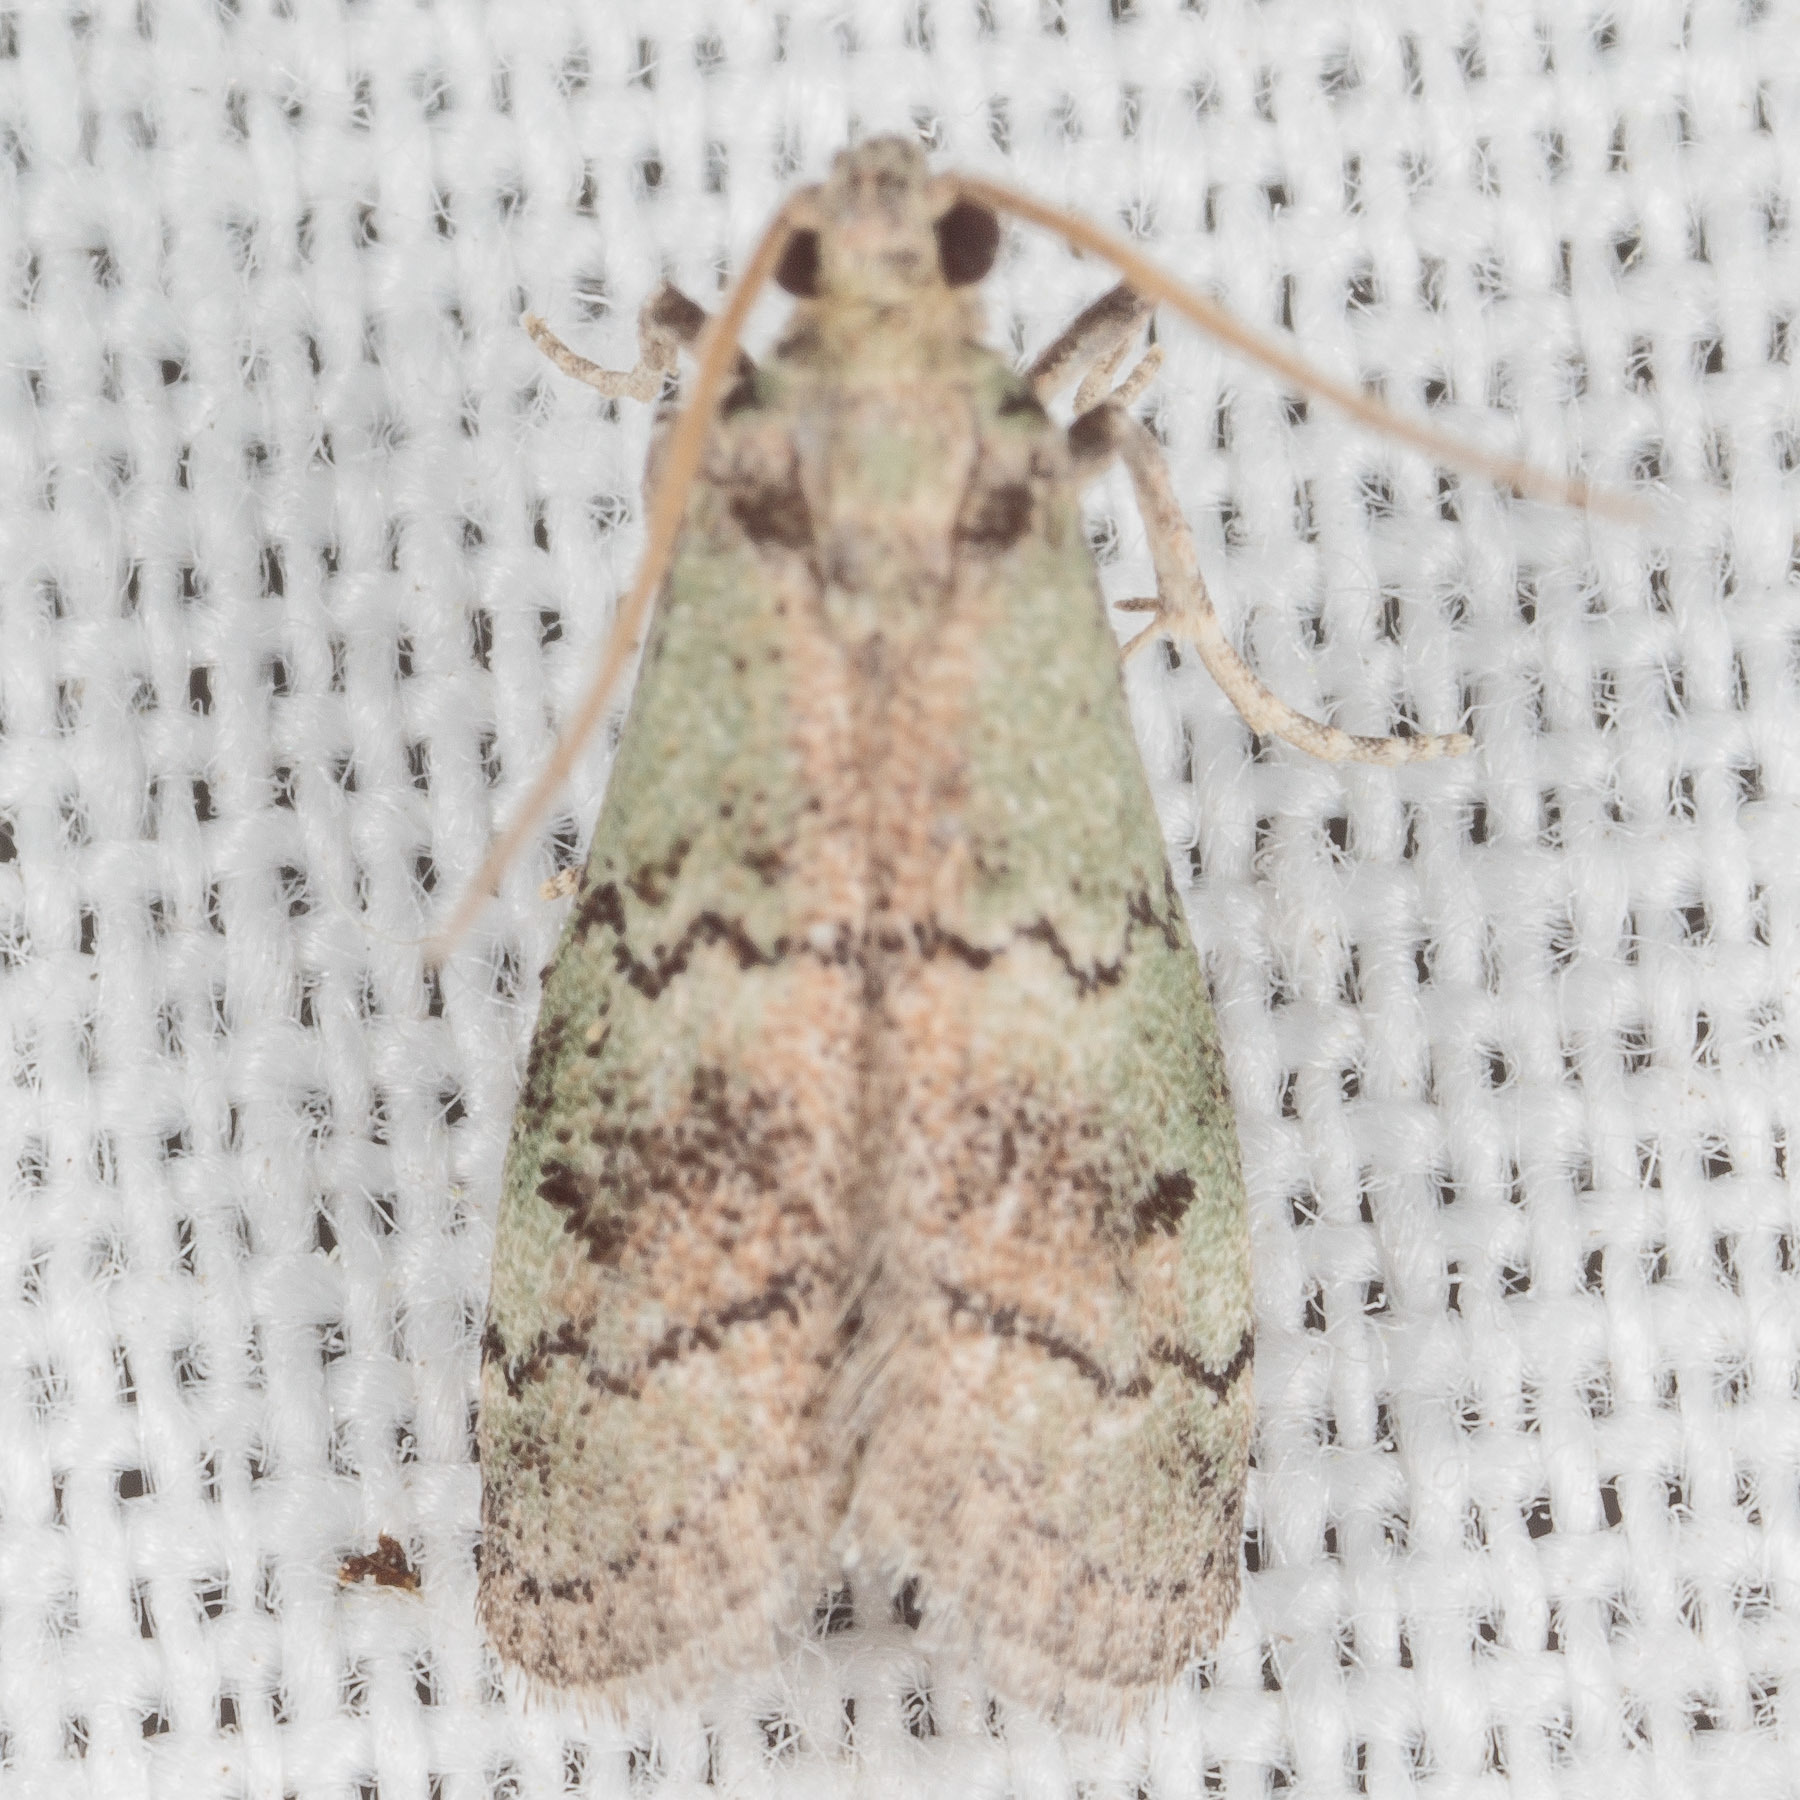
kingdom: Animalia
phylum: Arthropoda
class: Insecta
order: Lepidoptera
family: Pyralidae
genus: Cacotherapia
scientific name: Cacotherapia flexilinealis
